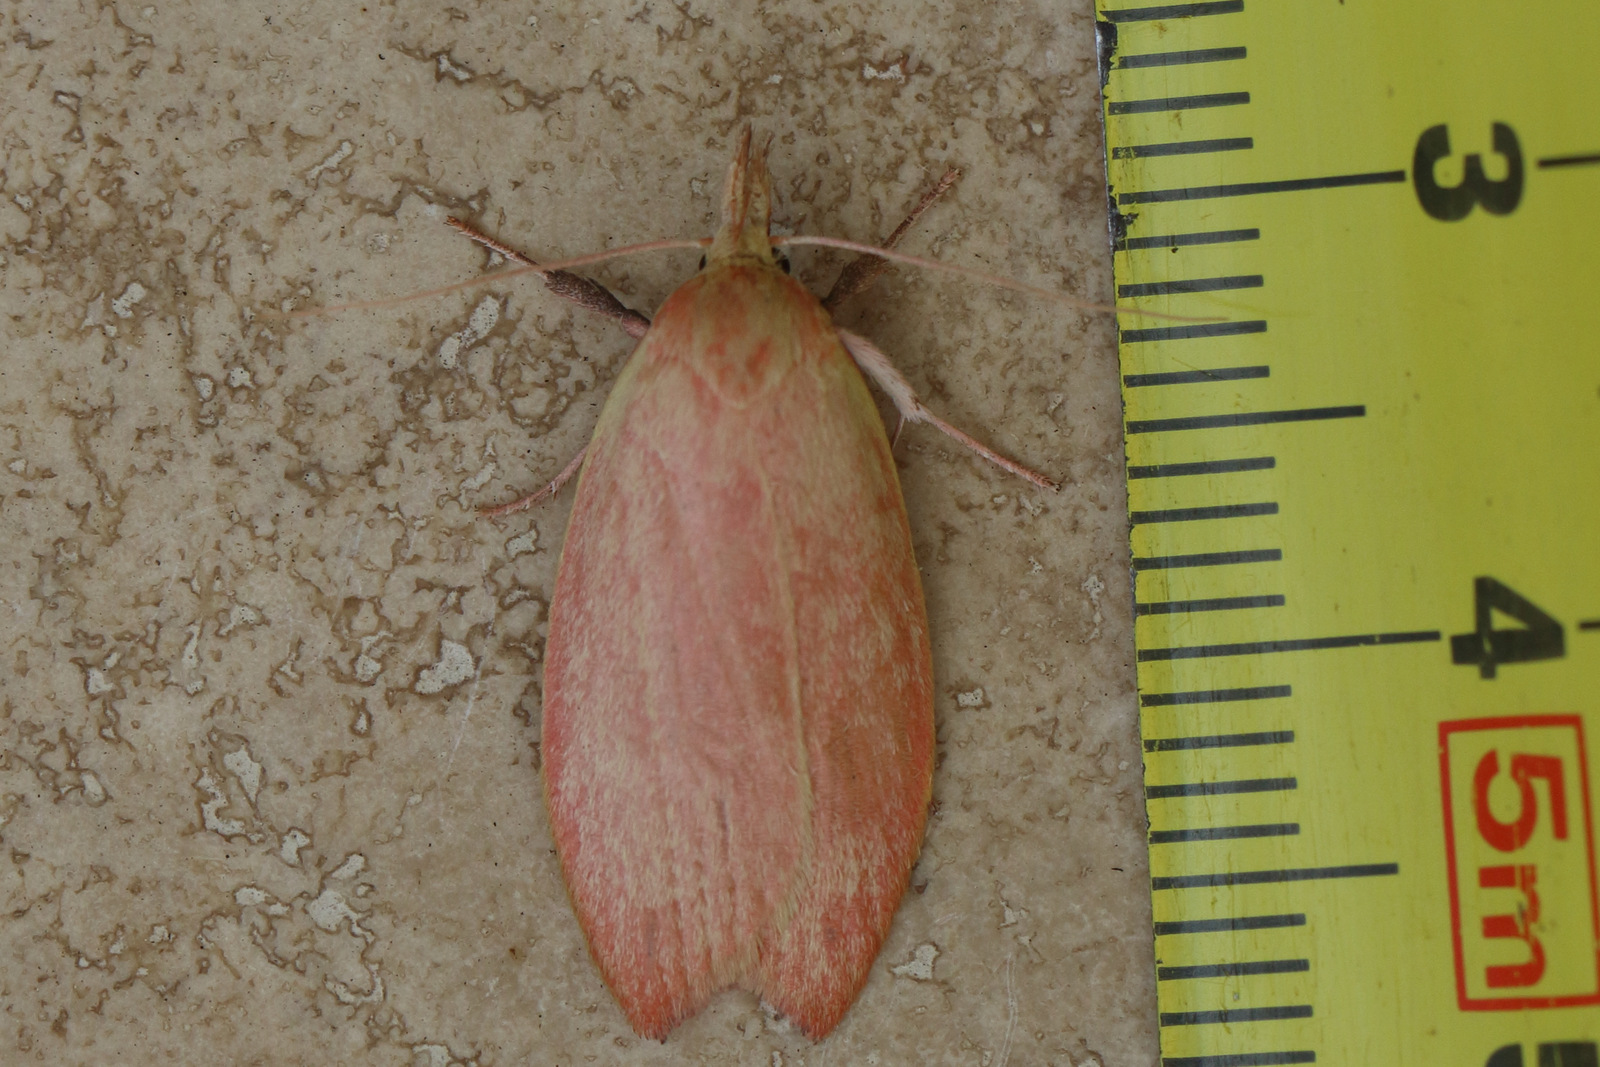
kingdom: Animalia
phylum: Arthropoda
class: Insecta
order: Lepidoptera
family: Oecophoridae
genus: Wingia
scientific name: Wingia rectiorella
